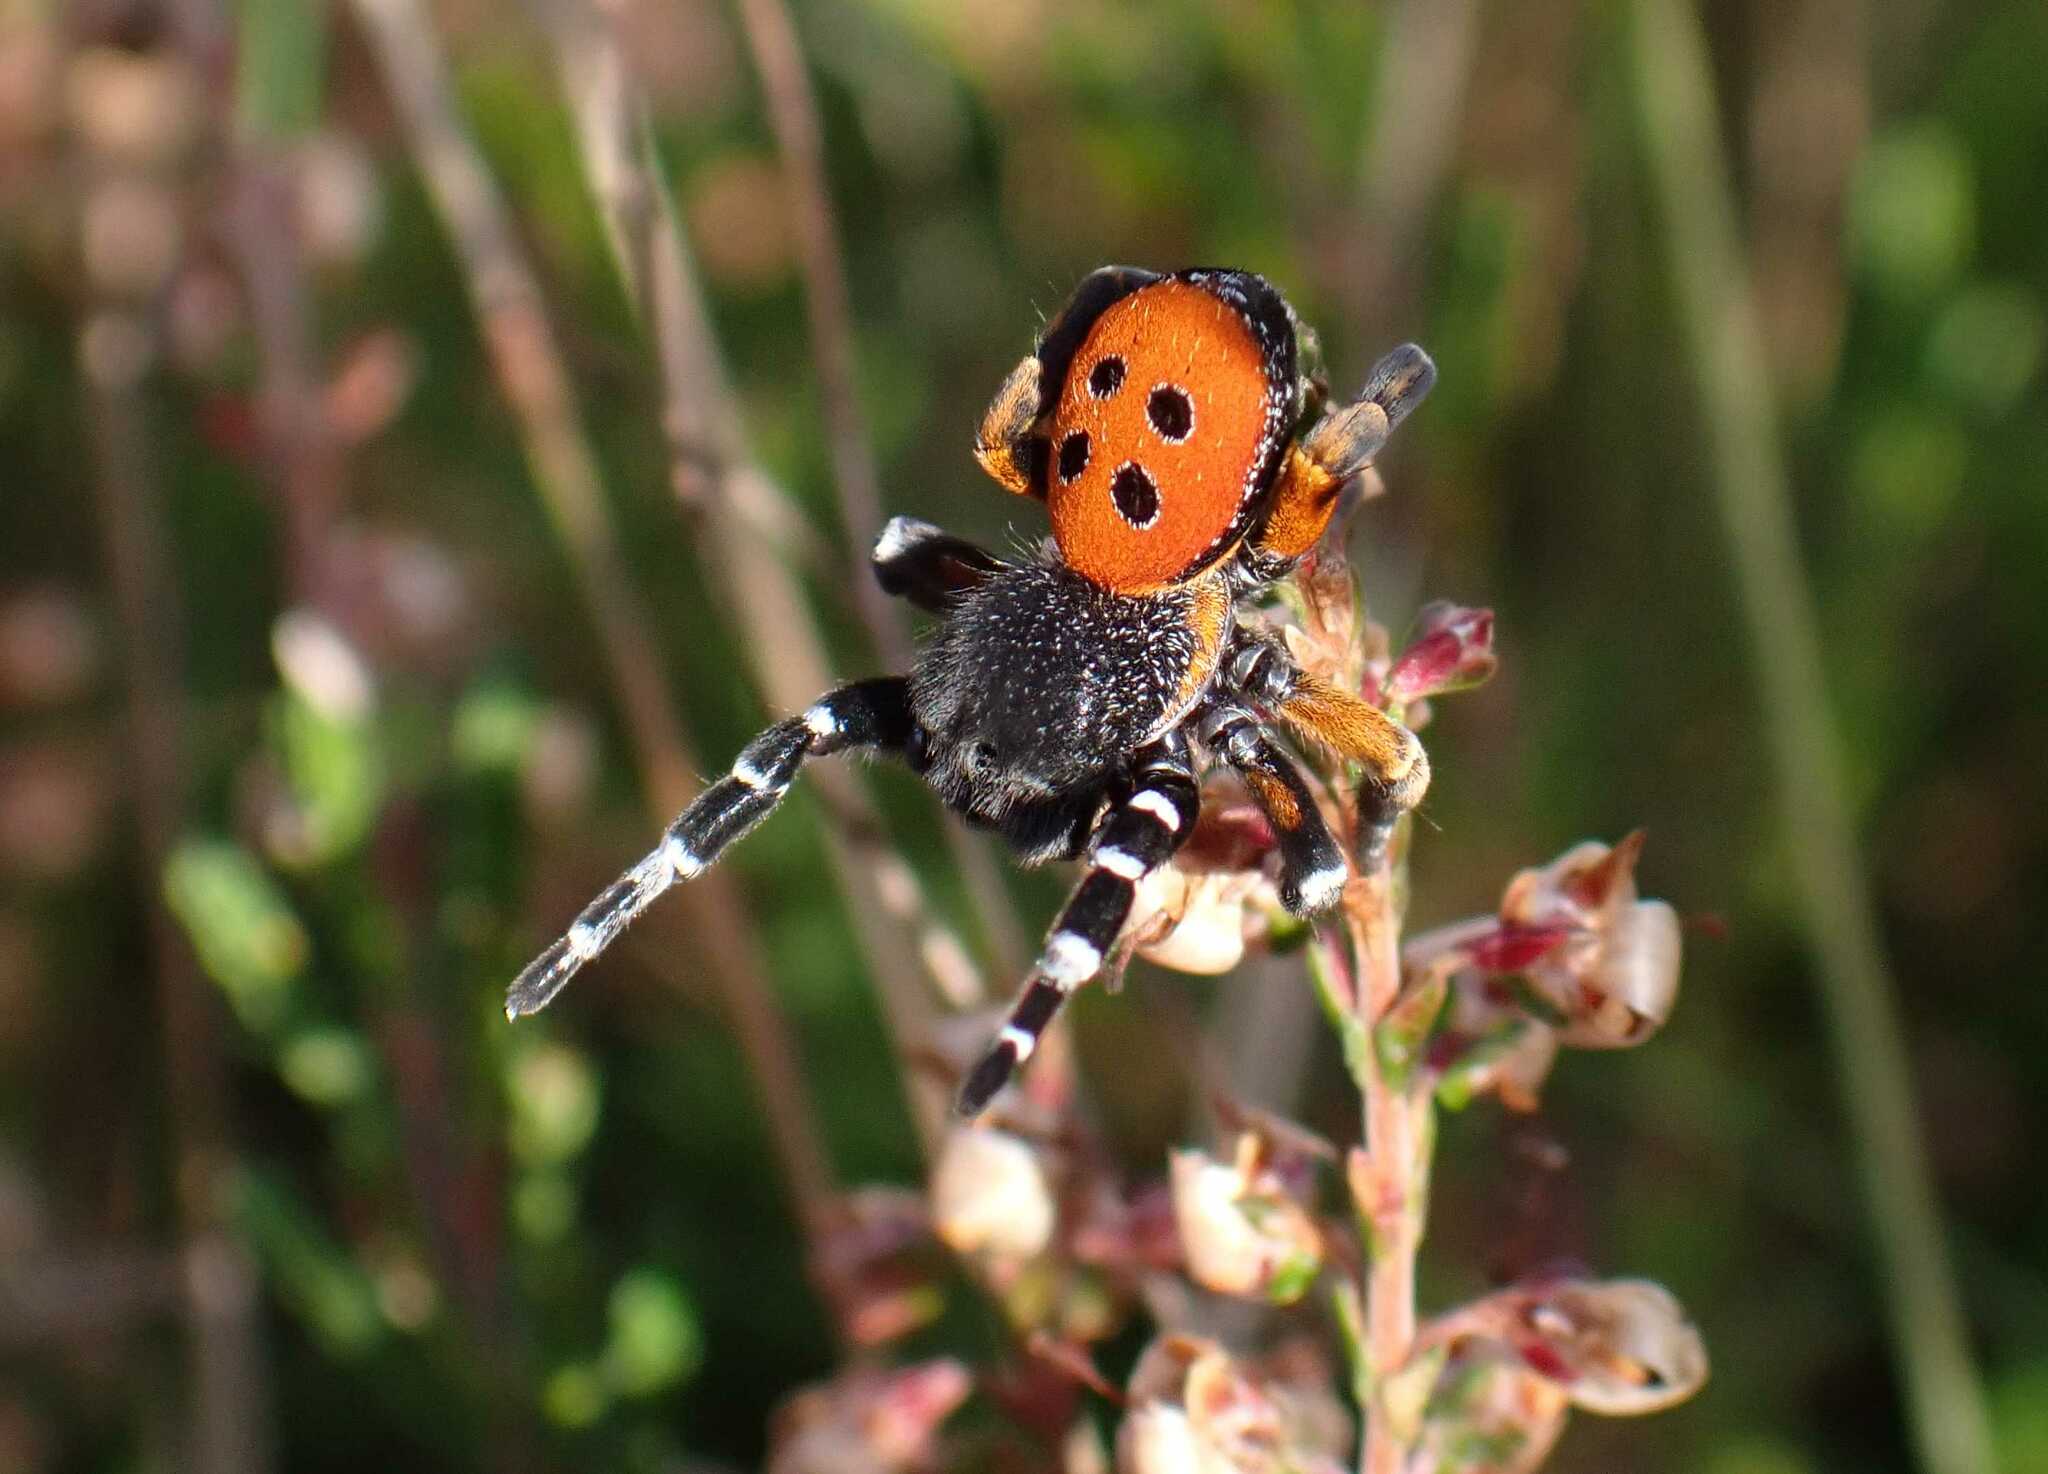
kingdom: Animalia
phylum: Arthropoda
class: Arachnida
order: Araneae
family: Eresidae
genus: Eresus
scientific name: Eresus kollari
